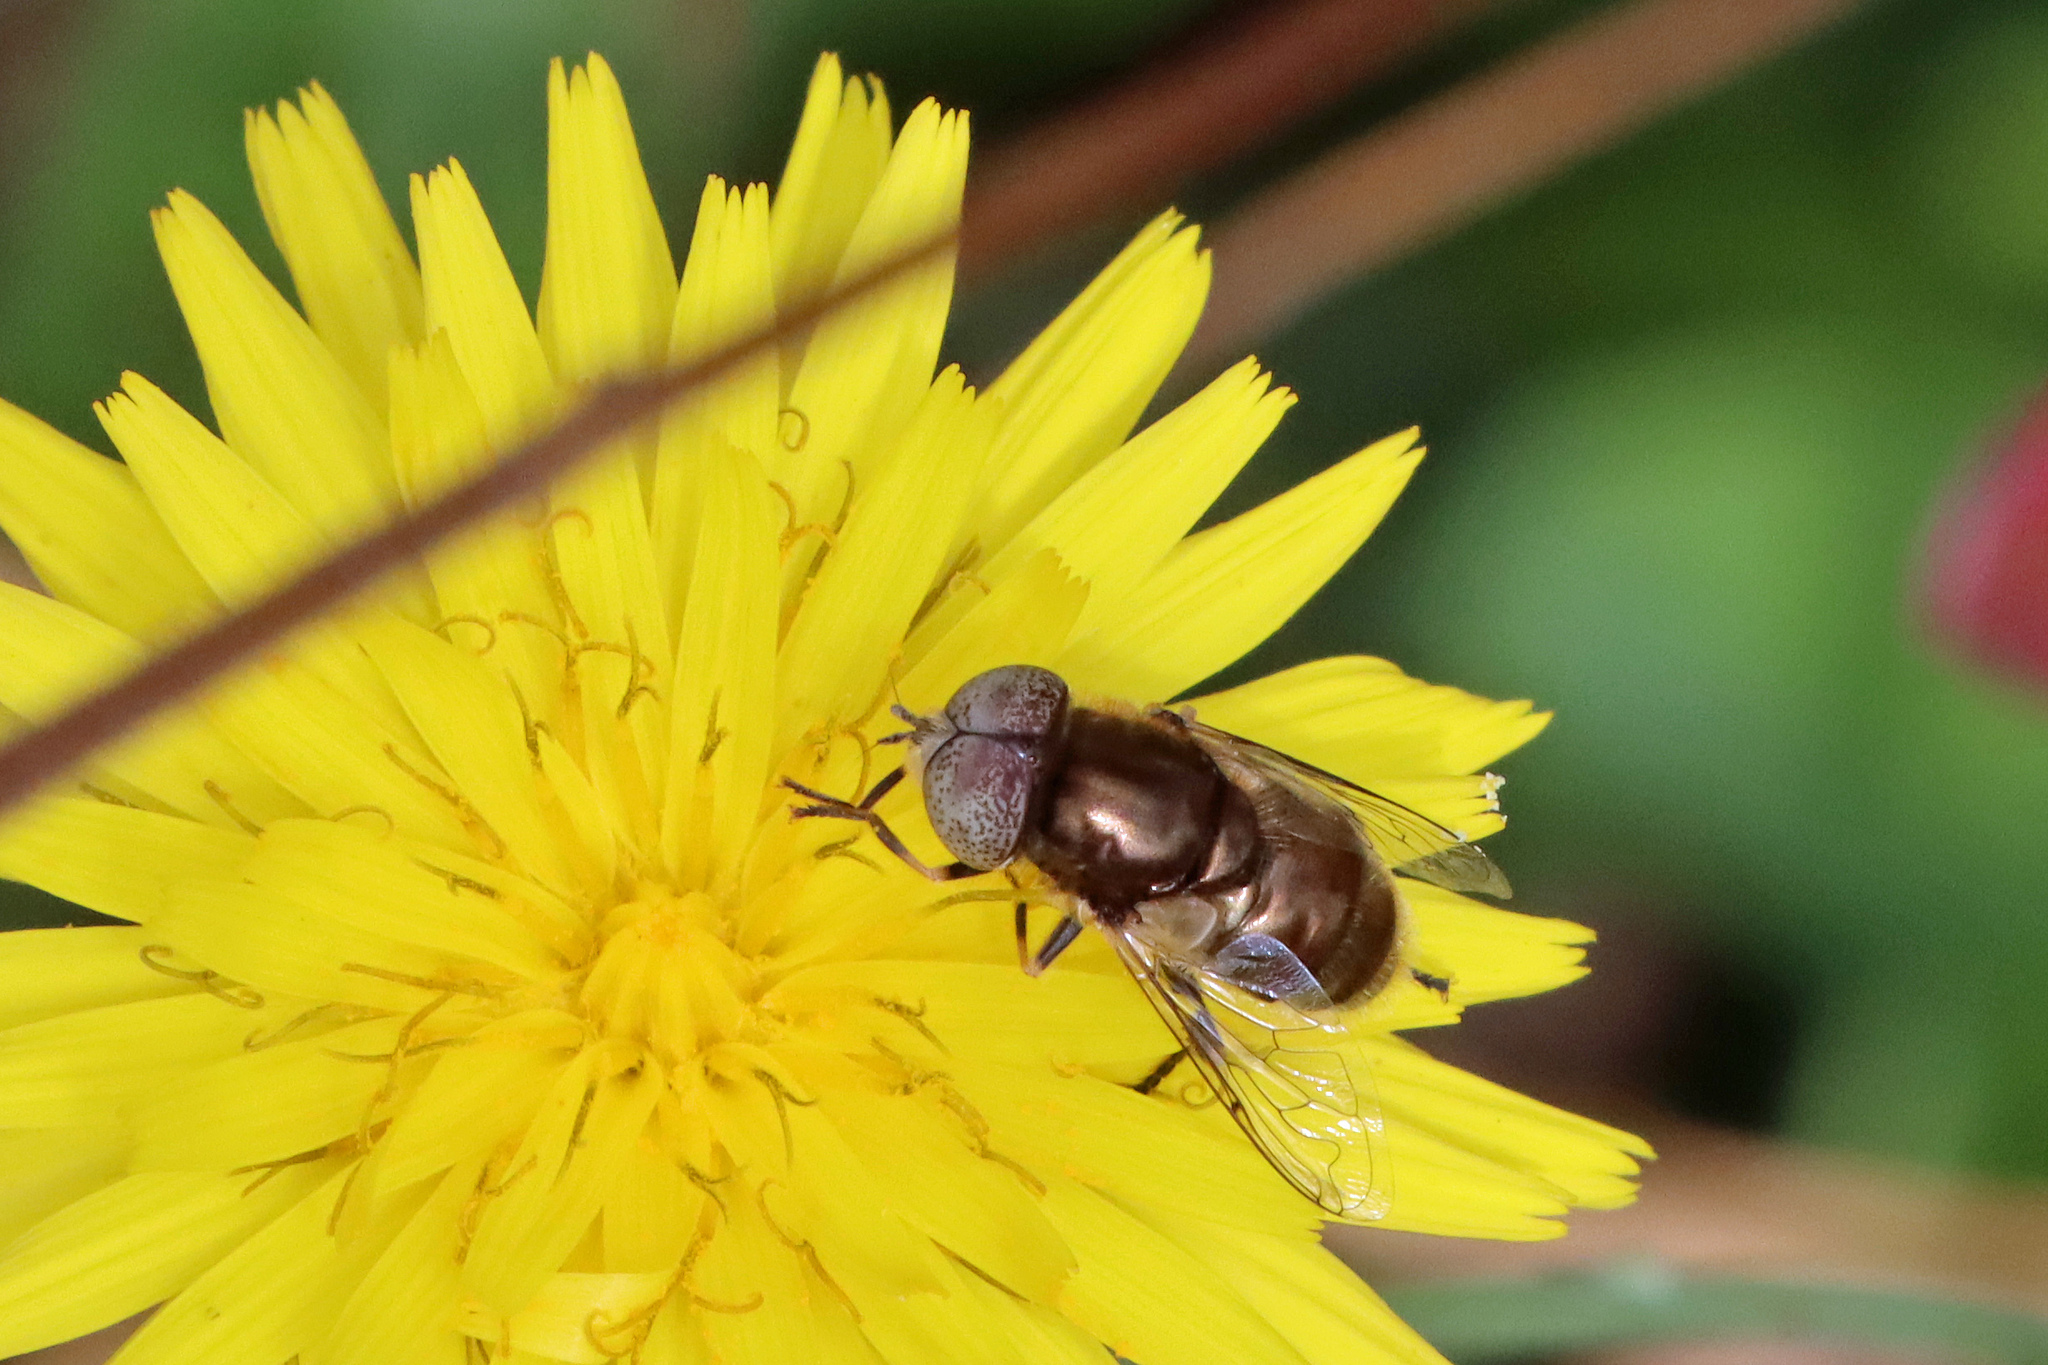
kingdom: Animalia
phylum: Arthropoda
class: Insecta
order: Diptera
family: Syrphidae
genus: Eristalinus
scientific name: Eristalinus aeneus
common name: Syrphid fly
